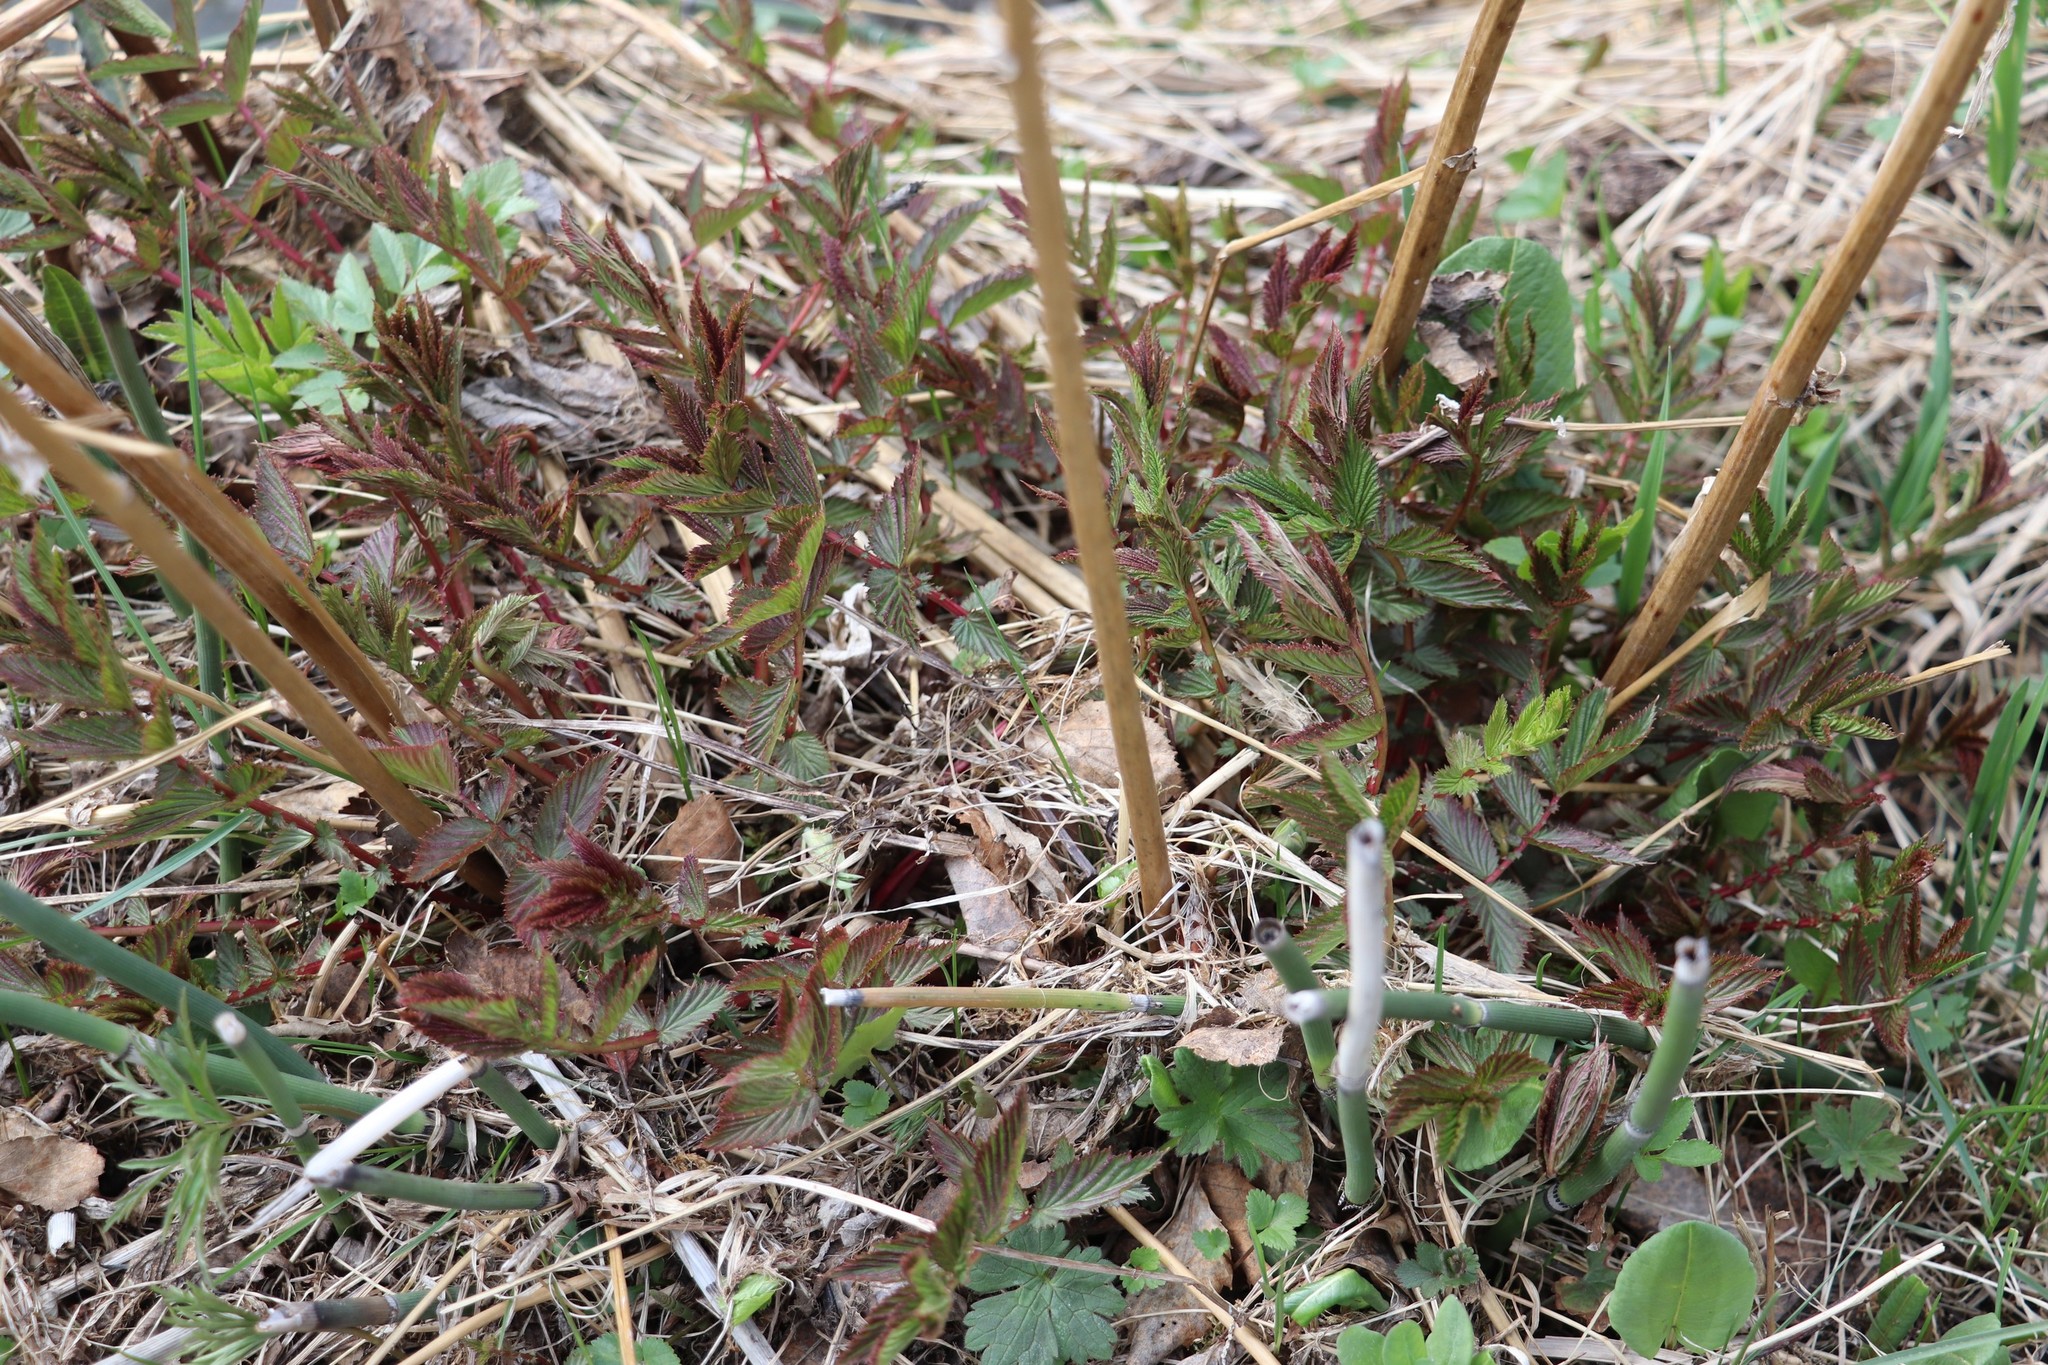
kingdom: Plantae
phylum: Tracheophyta
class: Magnoliopsida
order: Rosales
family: Rosaceae
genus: Filipendula
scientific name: Filipendula ulmaria
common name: Meadowsweet
